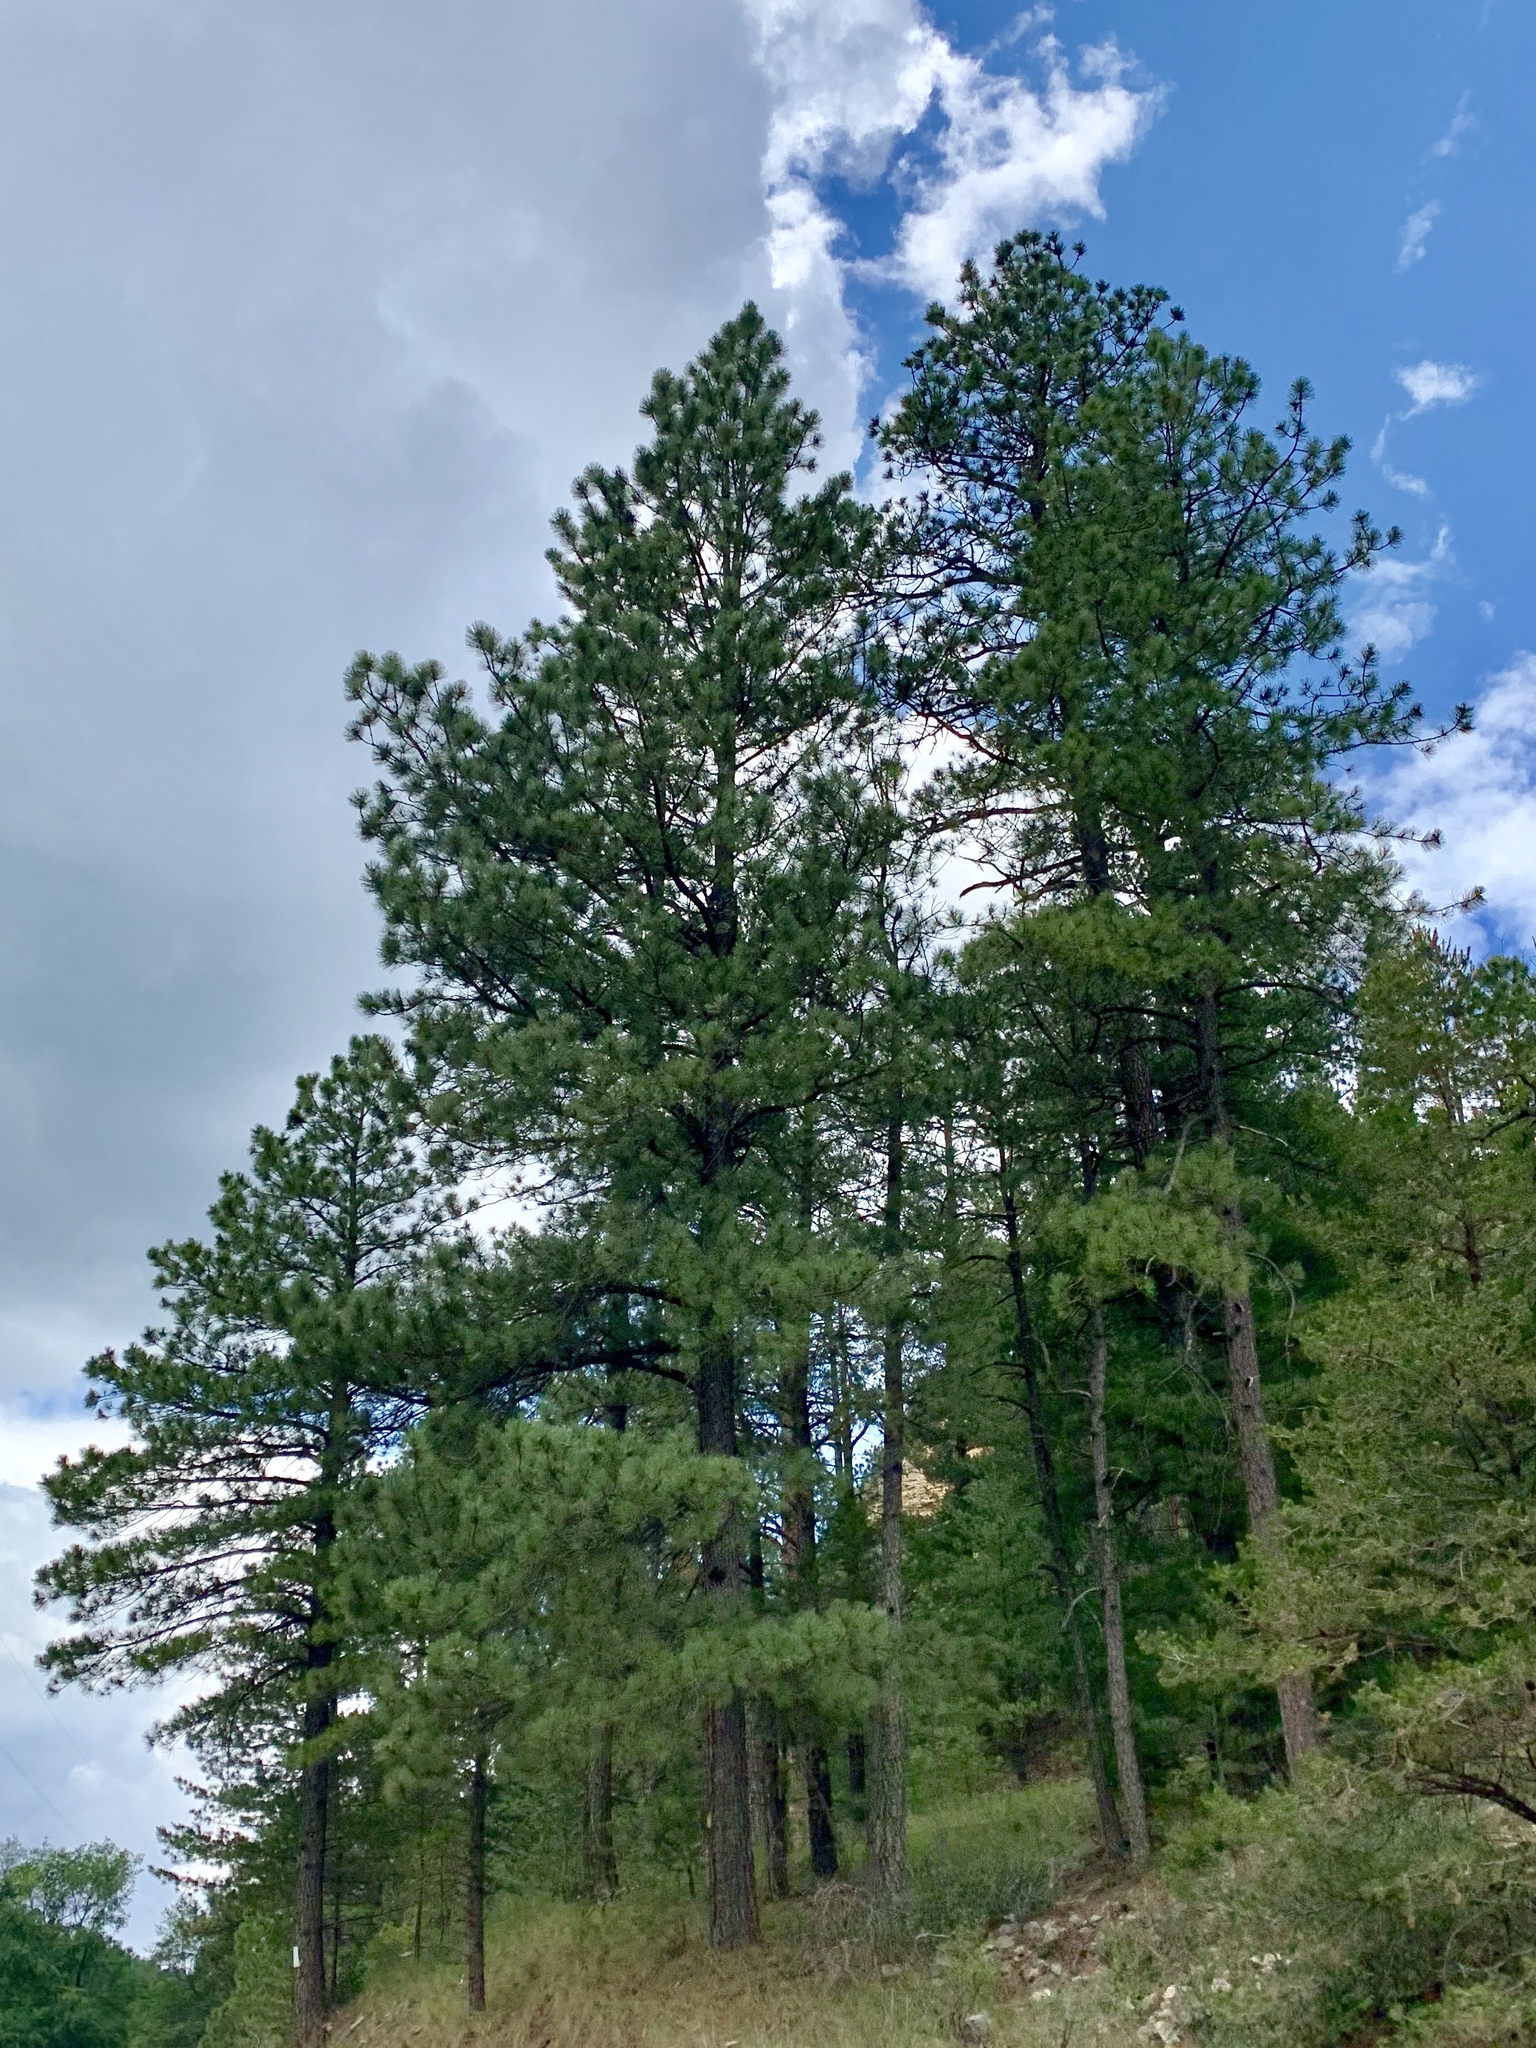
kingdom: Plantae
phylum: Tracheophyta
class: Pinopsida
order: Pinales
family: Pinaceae
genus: Pinus
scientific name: Pinus ponderosa
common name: Western yellow-pine
